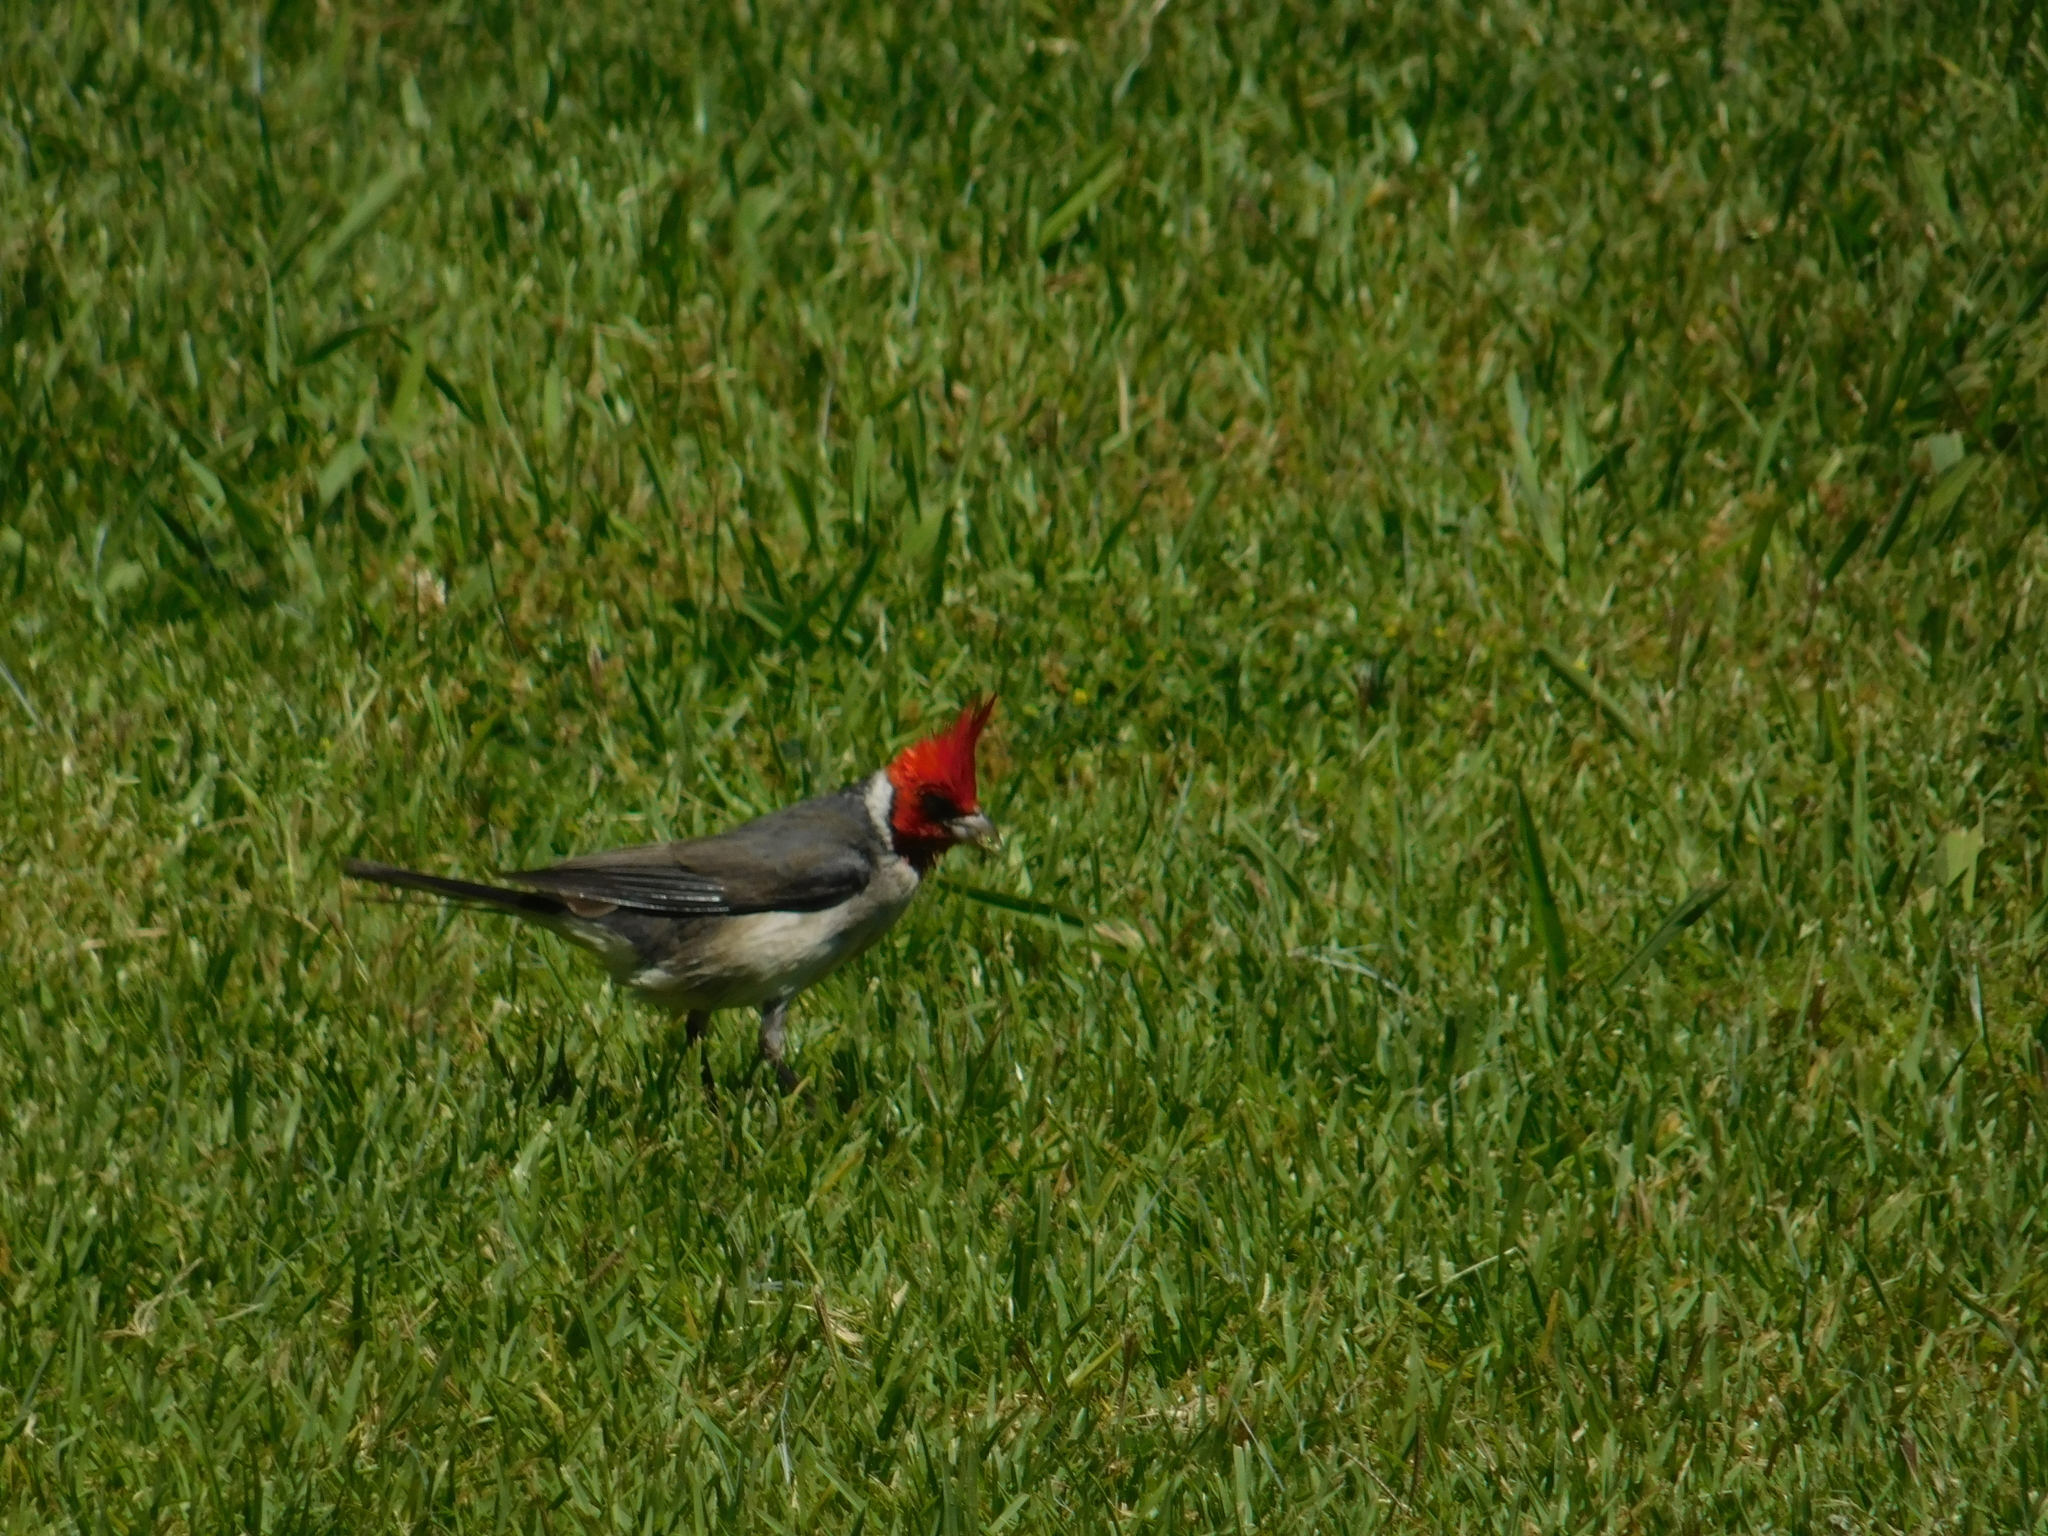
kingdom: Animalia
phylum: Chordata
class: Aves
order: Passeriformes
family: Thraupidae
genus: Paroaria
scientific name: Paroaria coronata
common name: Red-crested cardinal
